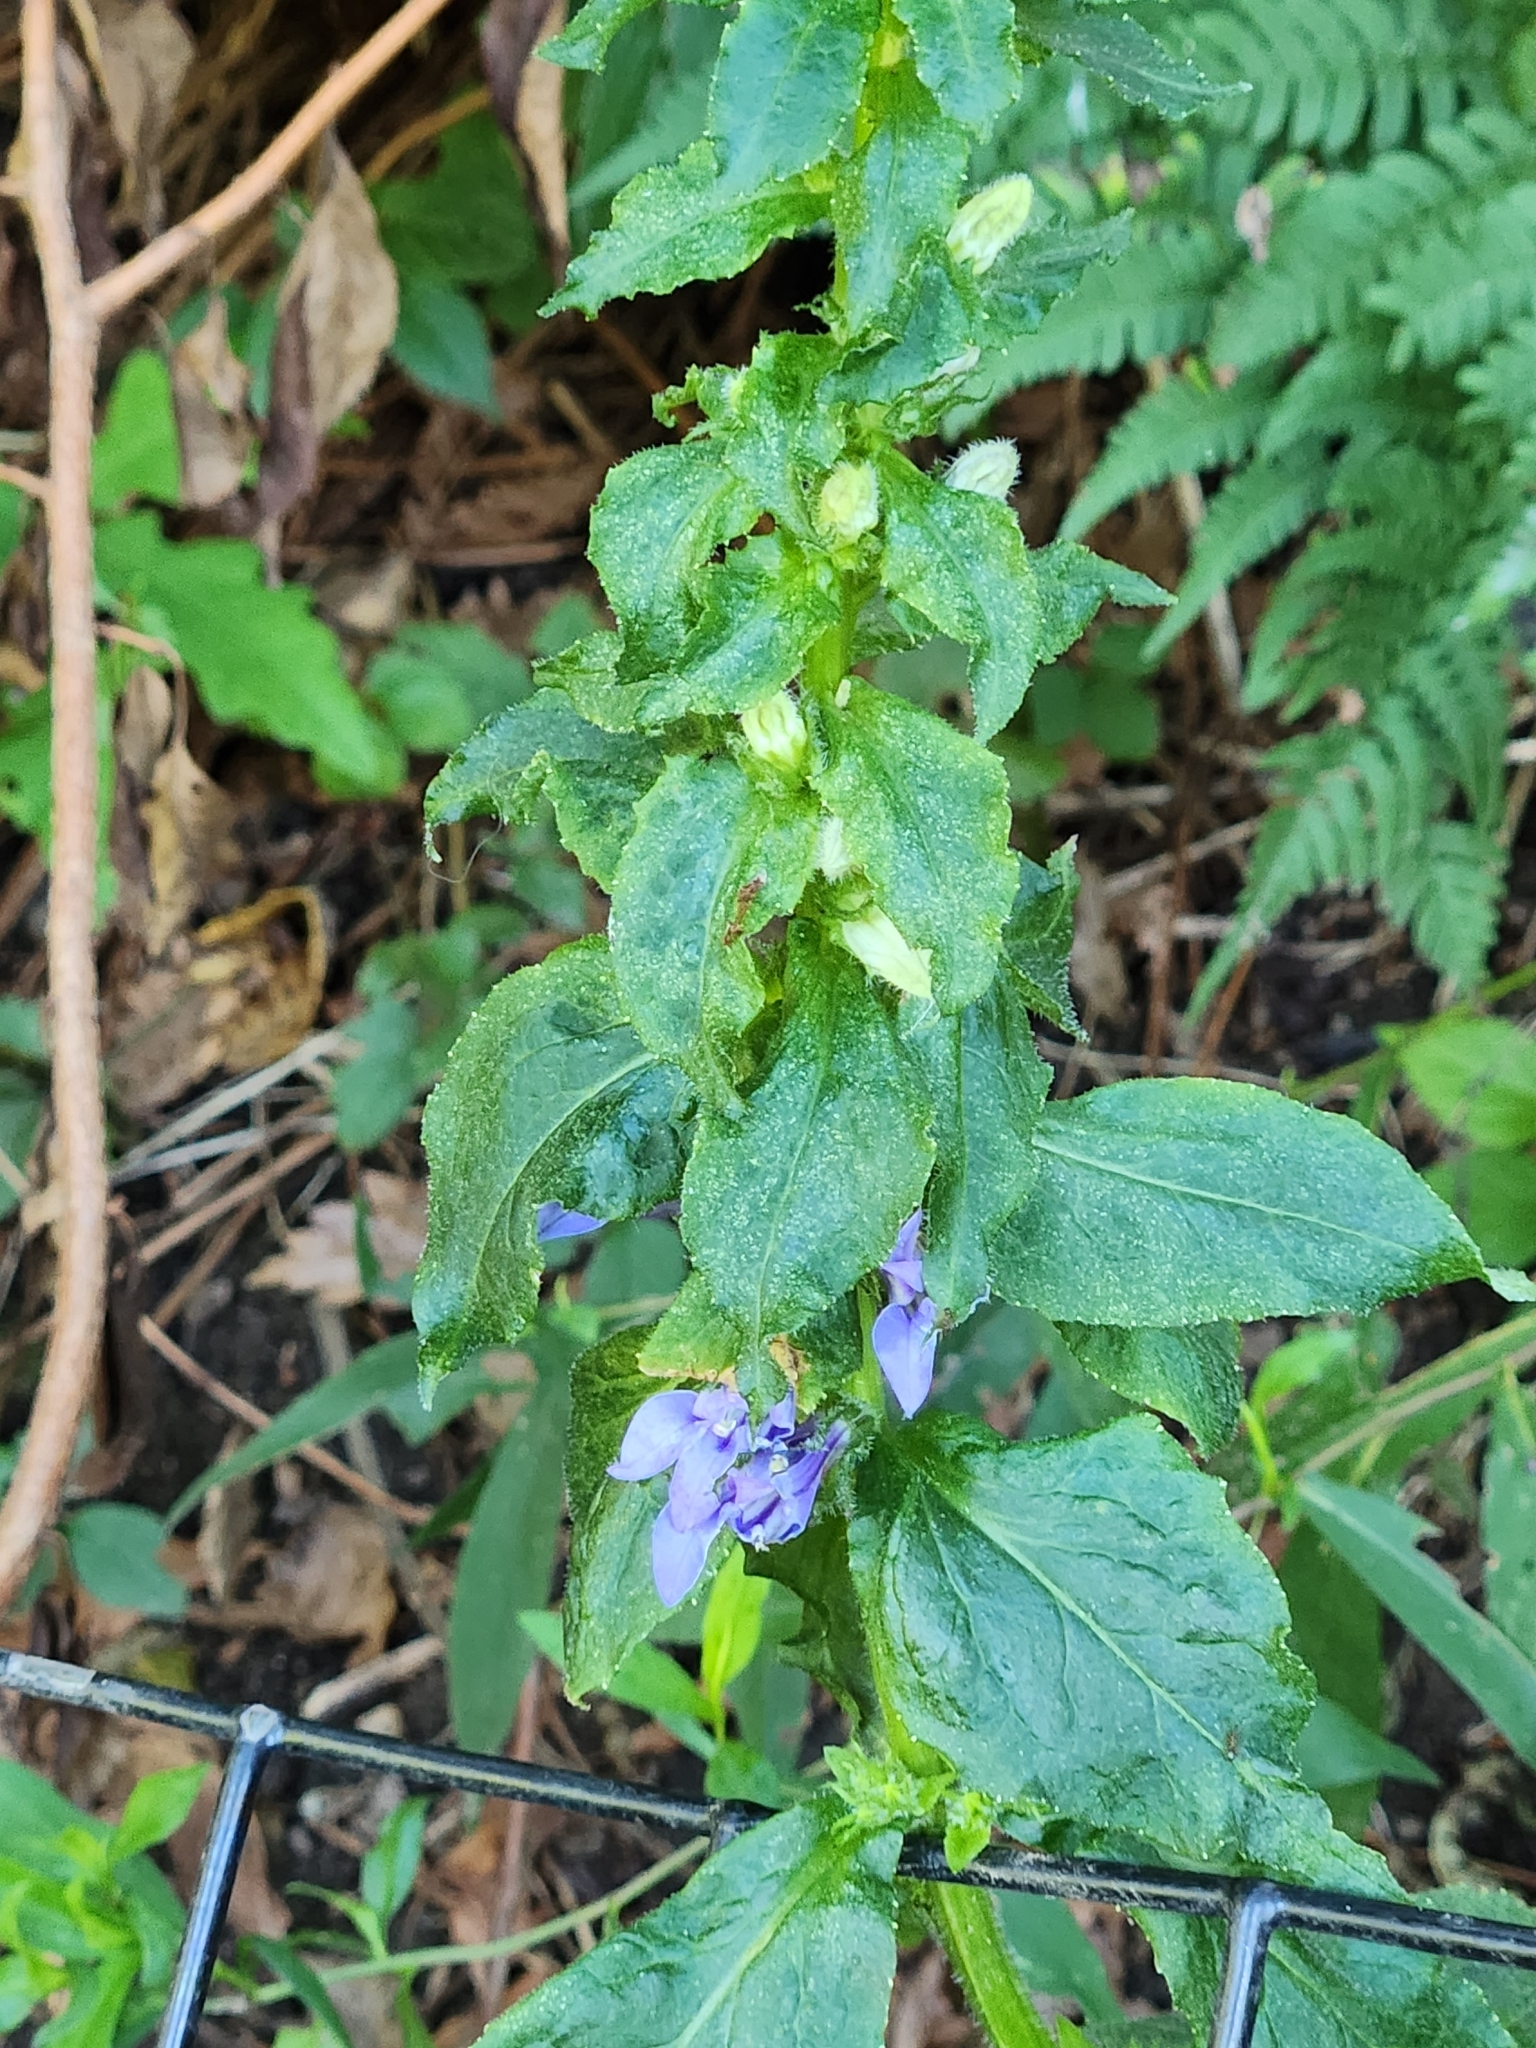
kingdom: Plantae
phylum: Tracheophyta
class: Magnoliopsida
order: Asterales
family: Campanulaceae
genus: Lobelia
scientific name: Lobelia siphilitica
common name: Great lobelia
